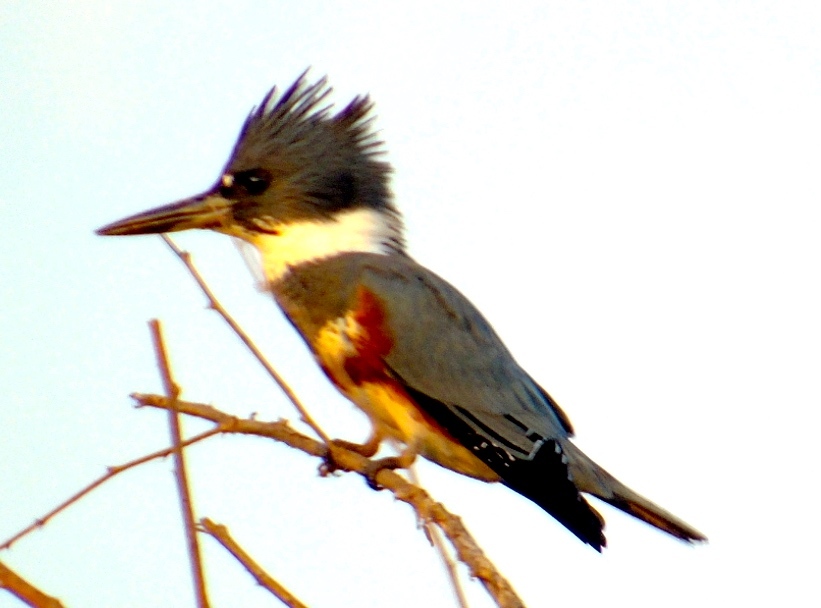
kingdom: Animalia
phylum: Chordata
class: Aves
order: Coraciiformes
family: Alcedinidae
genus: Megaceryle
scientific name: Megaceryle alcyon
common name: Belted kingfisher
